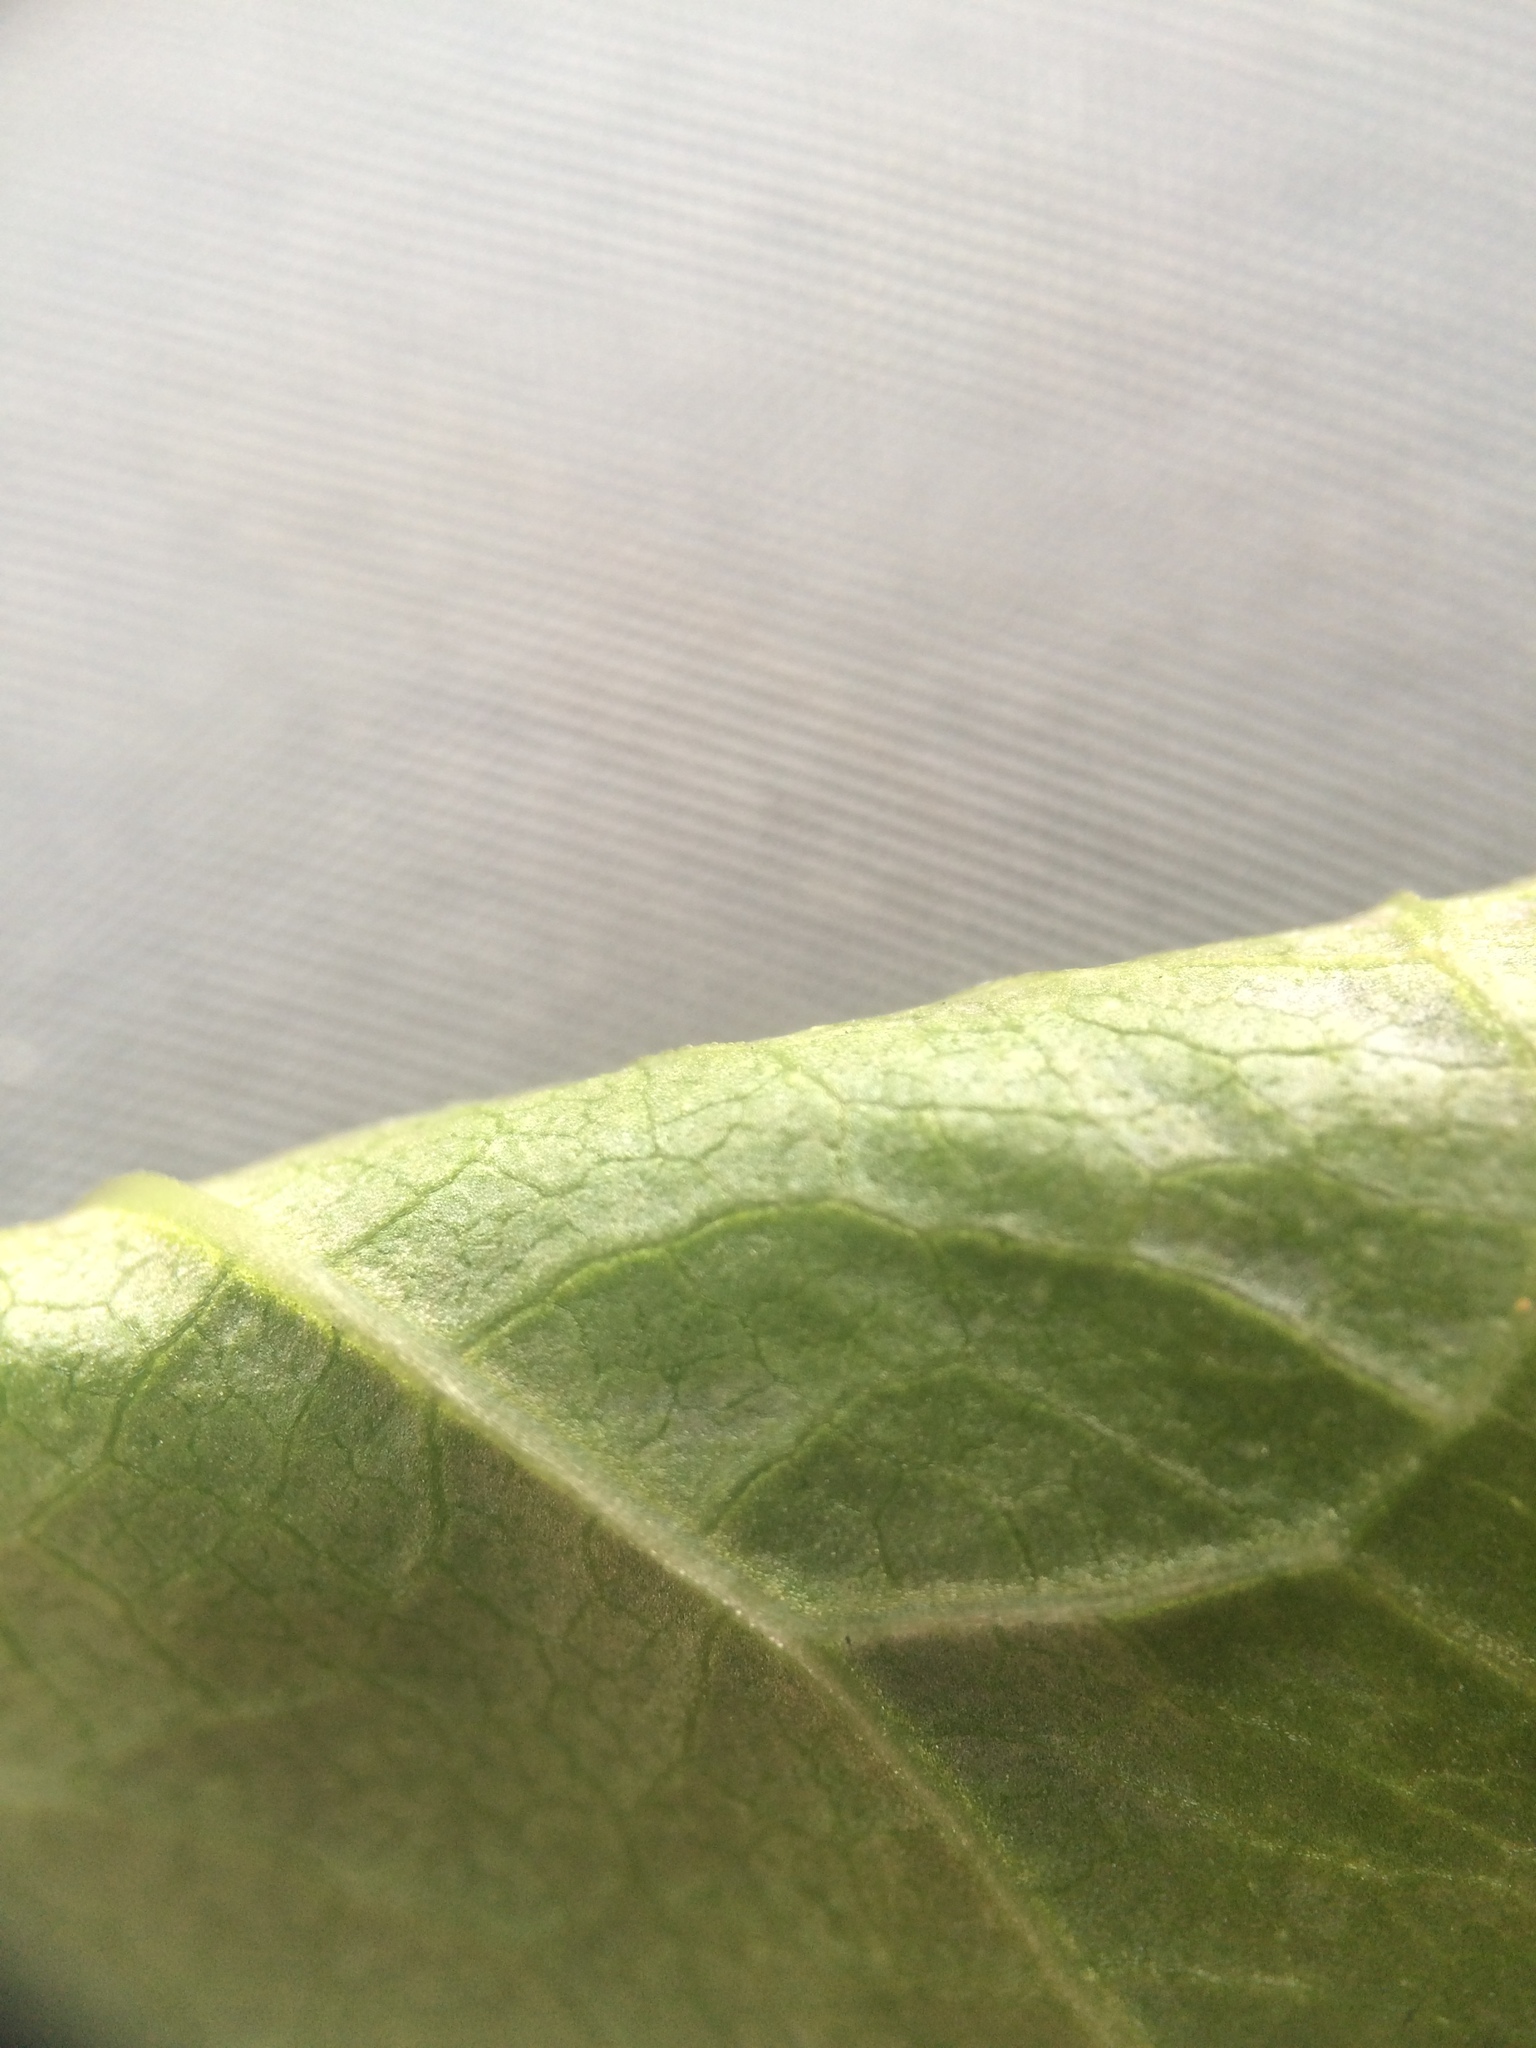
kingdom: Plantae
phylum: Tracheophyta
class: Magnoliopsida
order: Caryophyllales
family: Polygonaceae
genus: Reynoutria
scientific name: Reynoutria japonica
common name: Japanese knotweed
